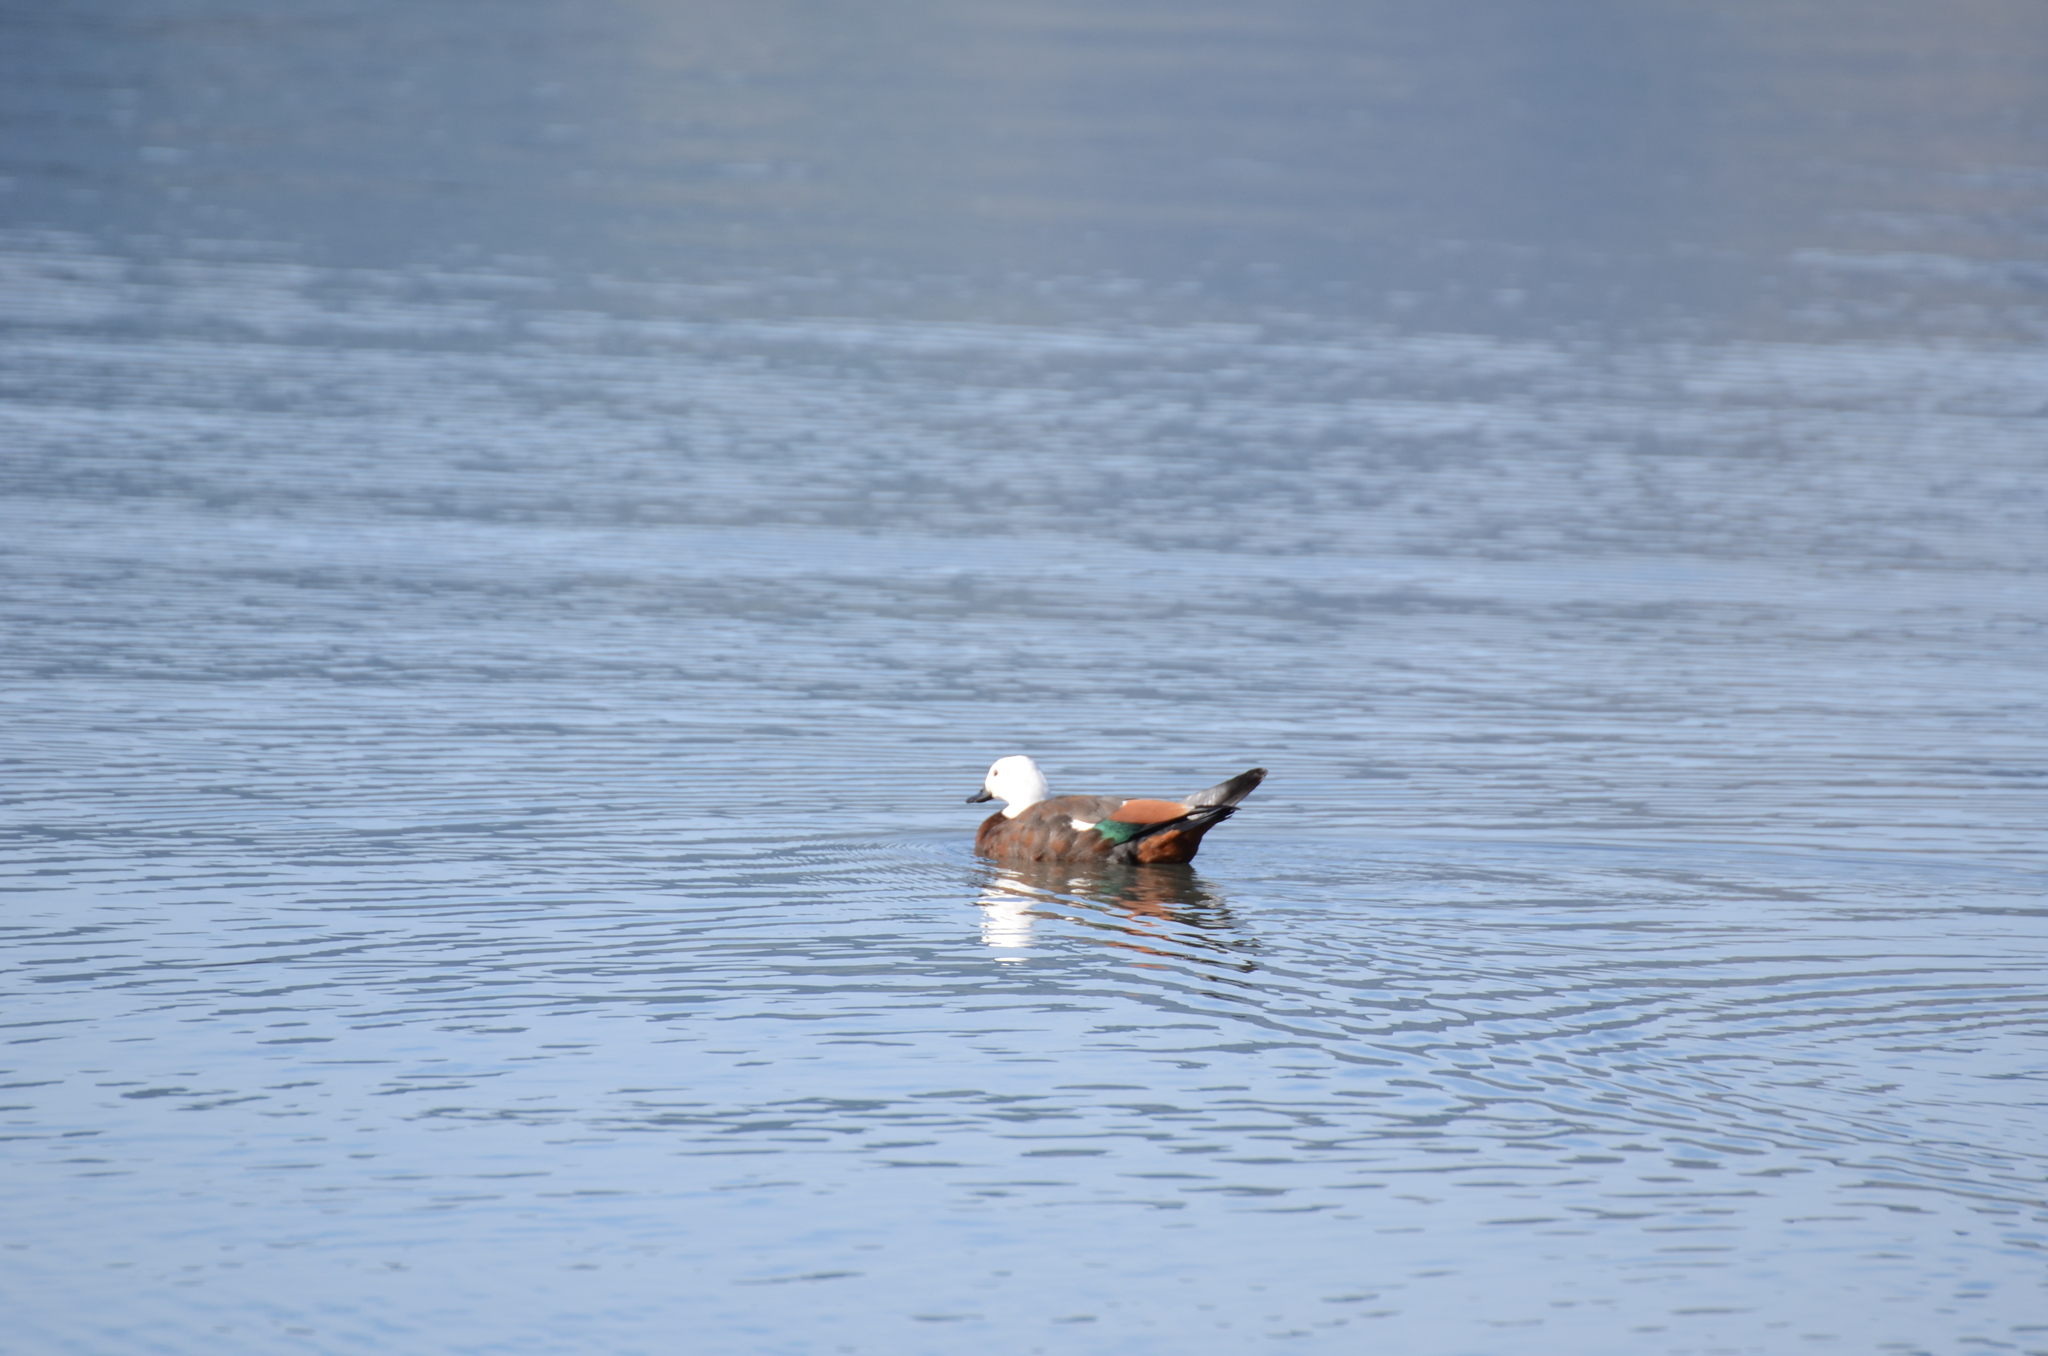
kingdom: Animalia
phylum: Chordata
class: Aves
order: Anseriformes
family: Anatidae
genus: Tadorna
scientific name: Tadorna variegata
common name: Paradise shelduck
